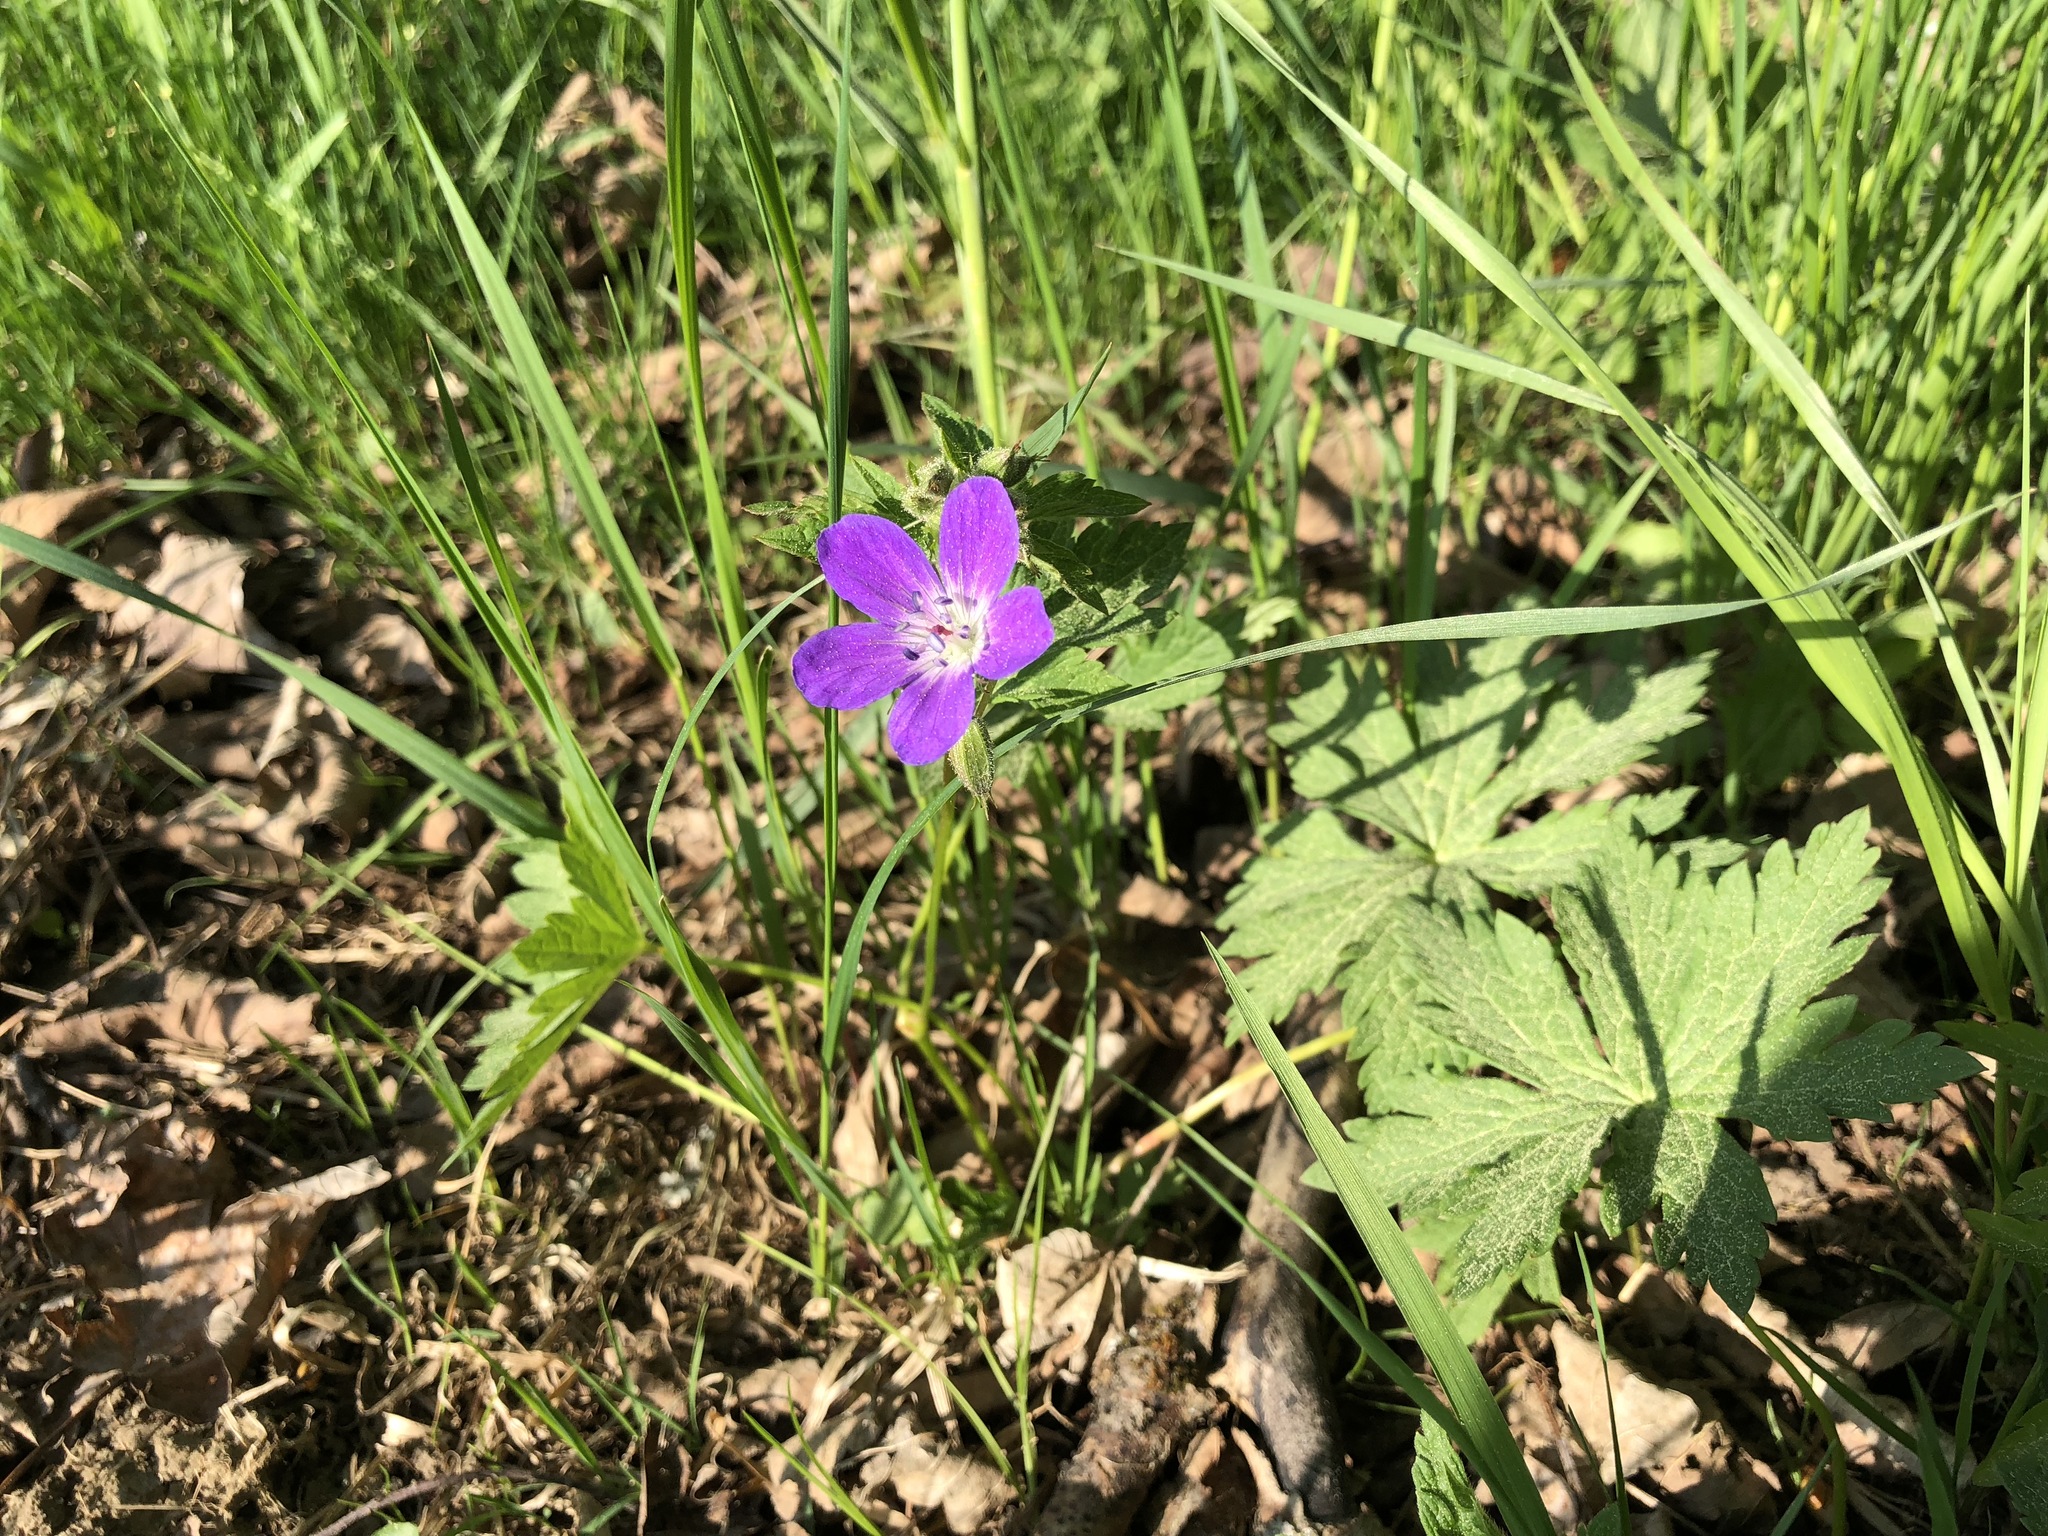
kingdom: Plantae
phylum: Tracheophyta
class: Magnoliopsida
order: Geraniales
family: Geraniaceae
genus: Geranium
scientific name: Geranium sylvaticum
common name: Wood crane's-bill
